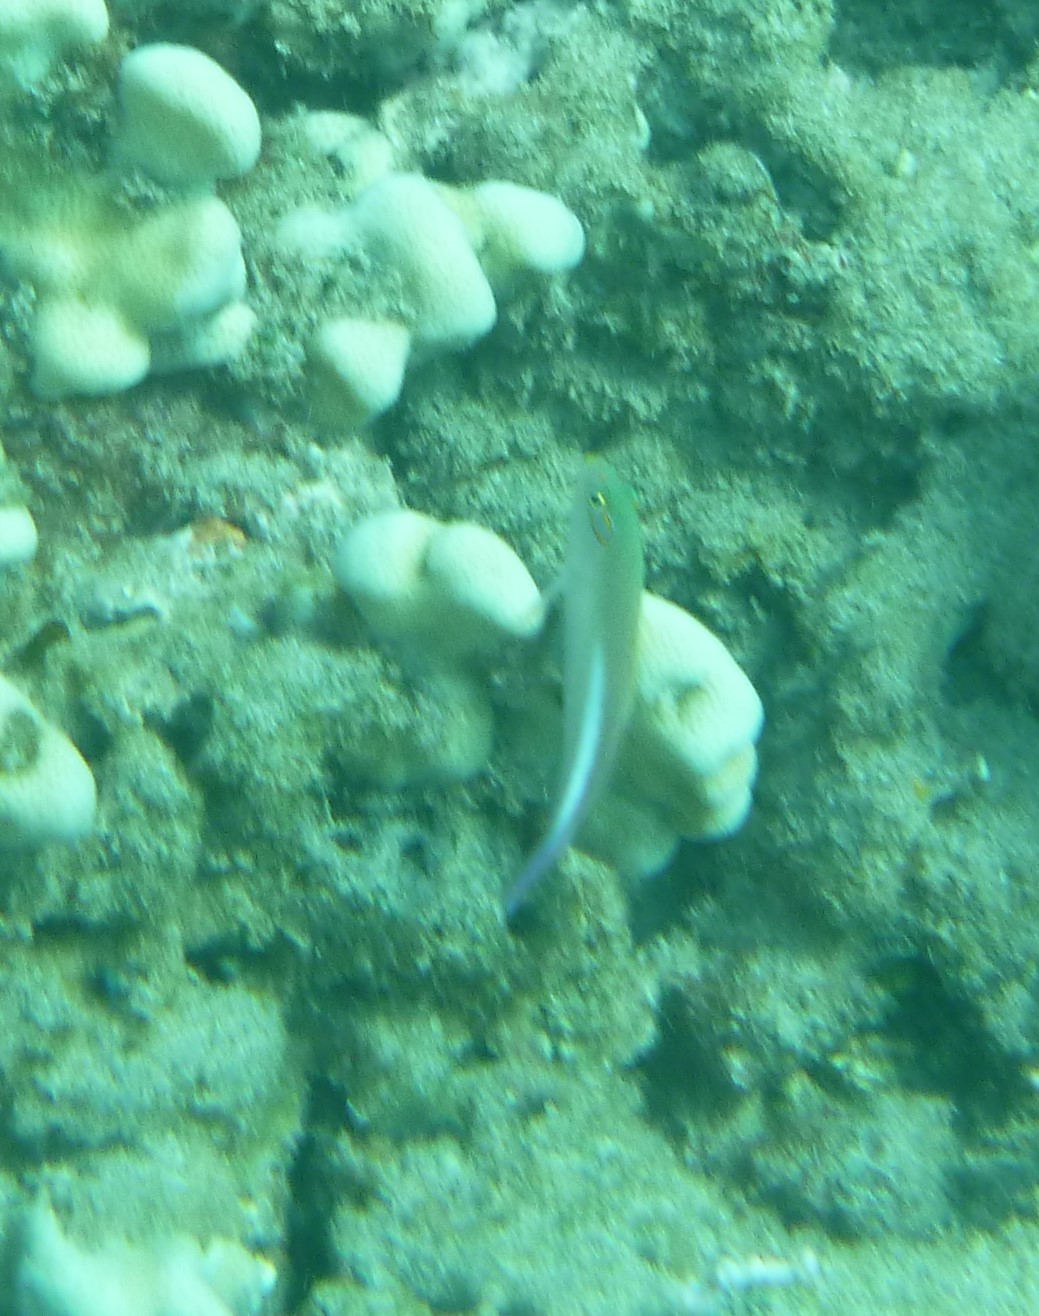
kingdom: Animalia
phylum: Chordata
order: Perciformes
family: Cirrhitidae
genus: Paracirrhites
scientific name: Paracirrhites arcatus
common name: Arc-eye hawkfish
